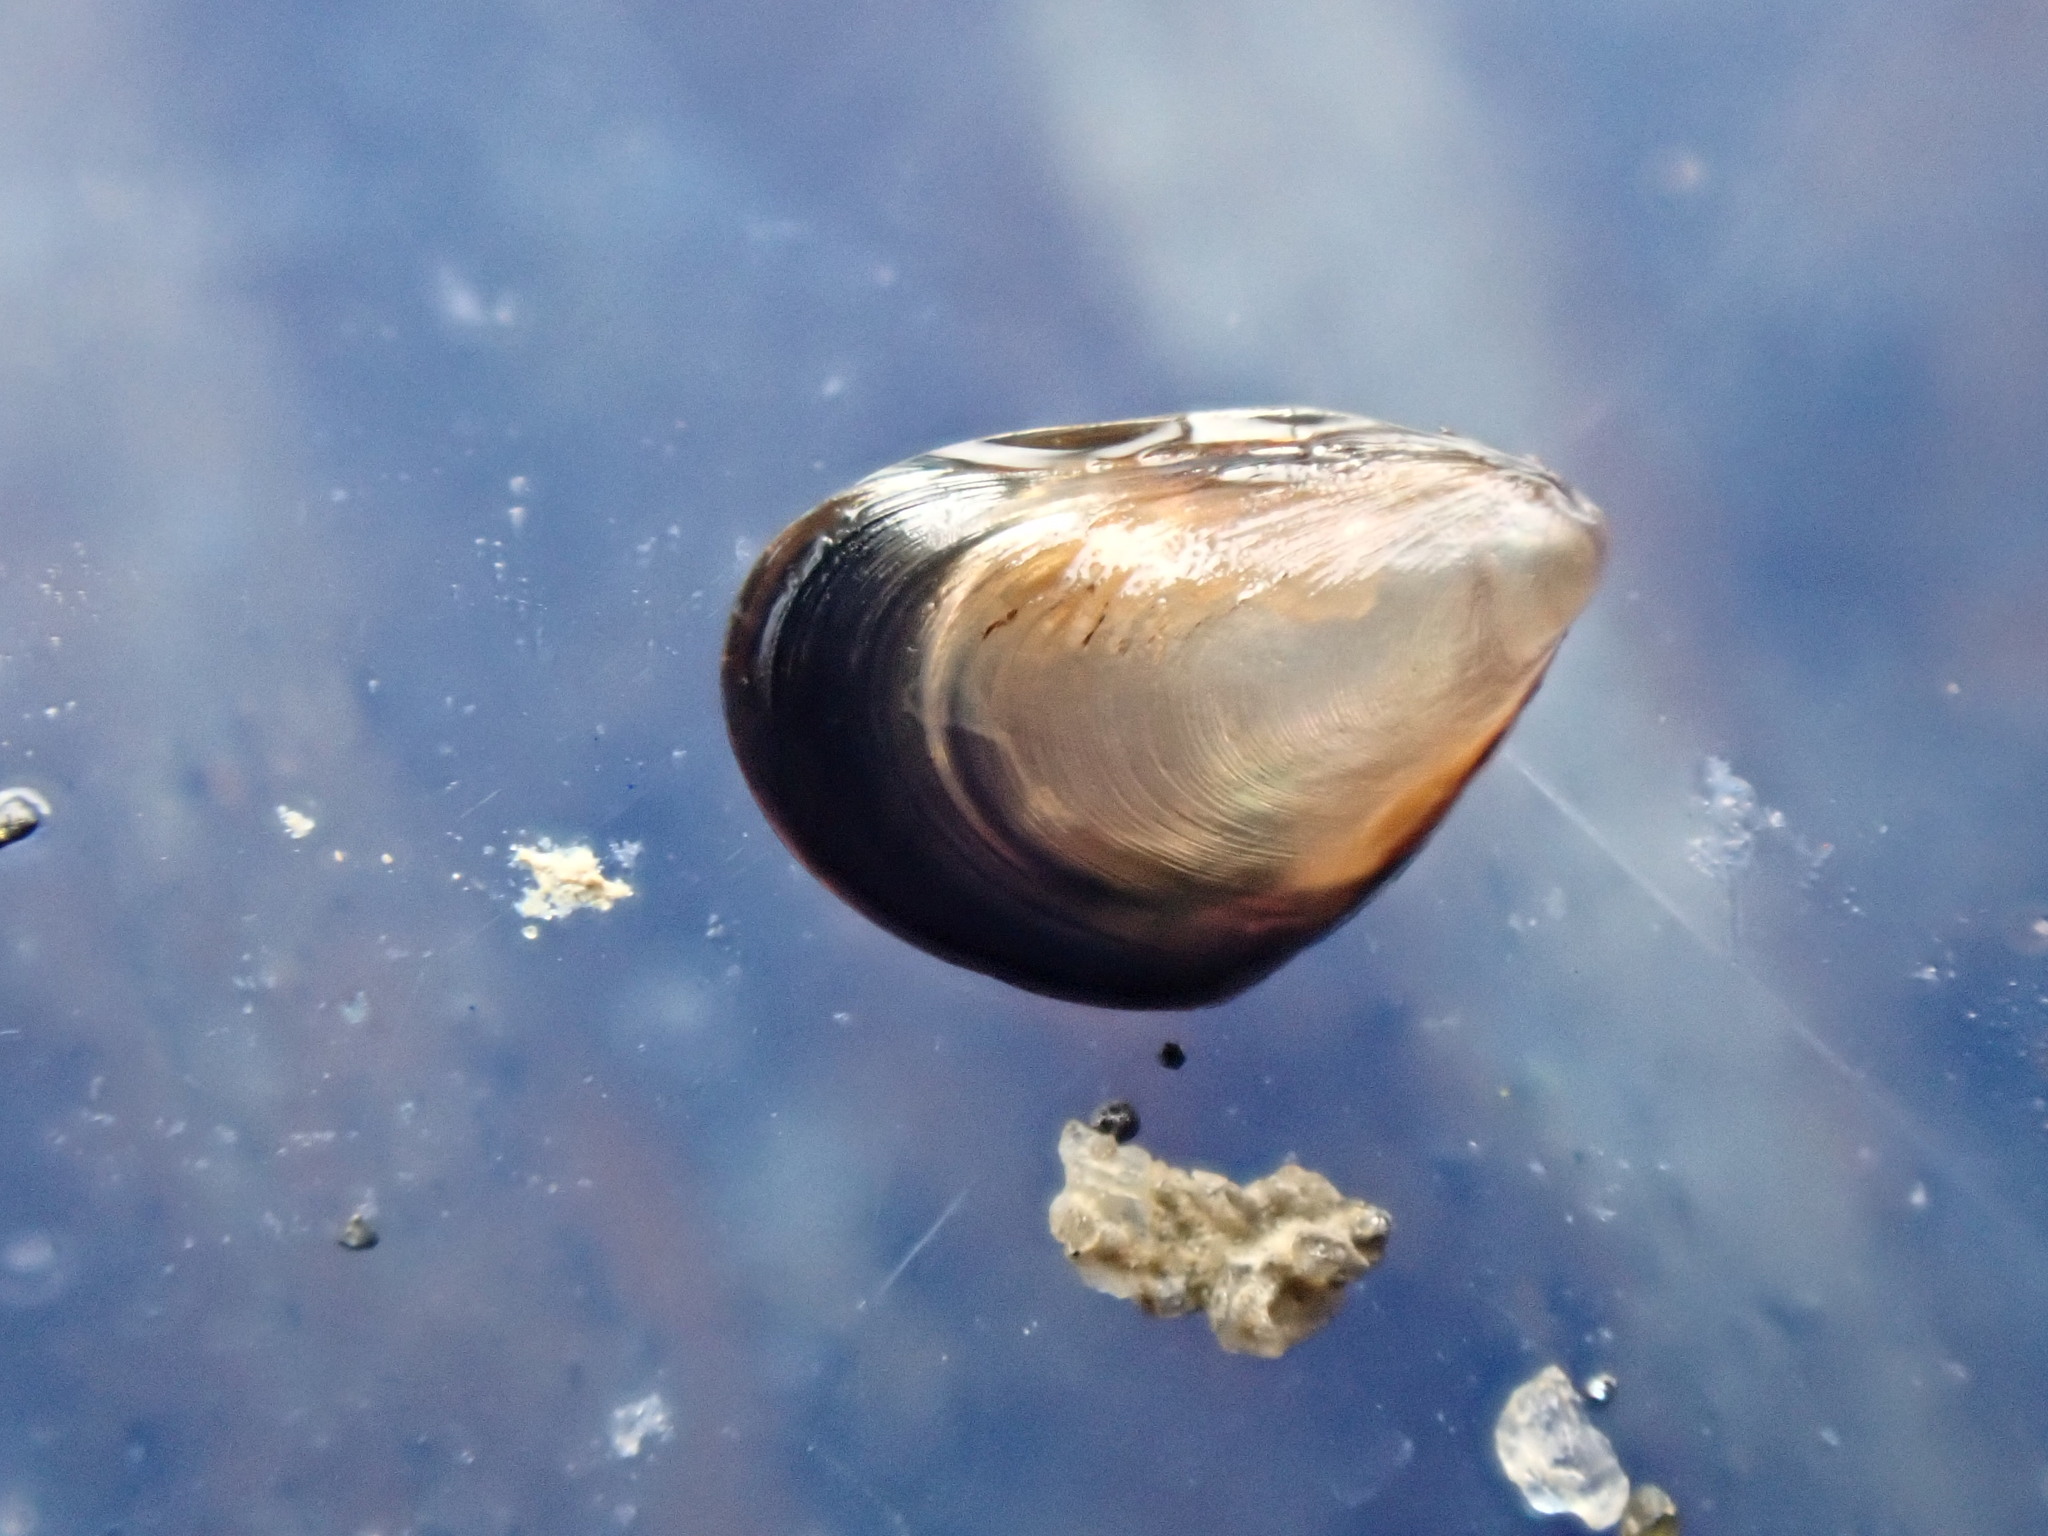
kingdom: Animalia
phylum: Mollusca
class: Bivalvia
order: Mytilida
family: Mytilidae
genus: Xenostrobus
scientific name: Xenostrobus neozelanicus
